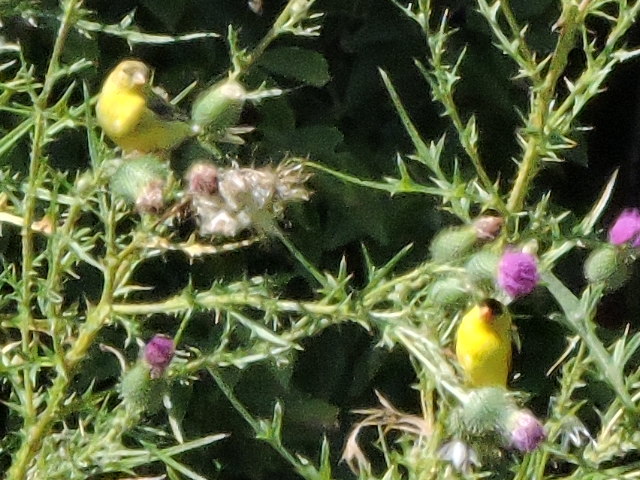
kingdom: Animalia
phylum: Chordata
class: Aves
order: Passeriformes
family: Fringillidae
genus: Spinus
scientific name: Spinus tristis
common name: American goldfinch
